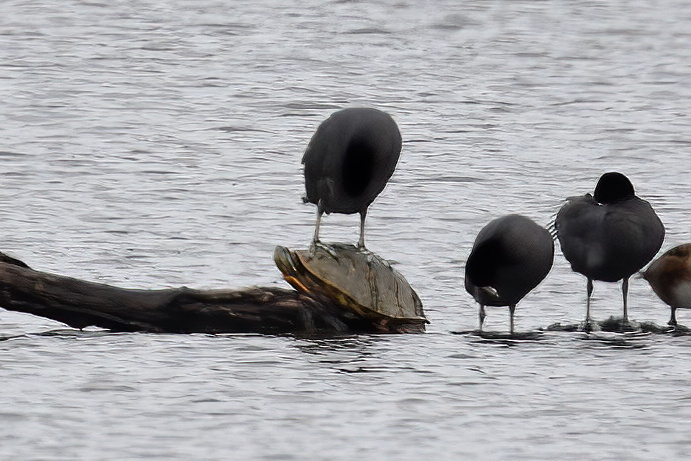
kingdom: Animalia
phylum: Chordata
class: Testudines
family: Emydidae
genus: Trachemys
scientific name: Trachemys scripta
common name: Slider
